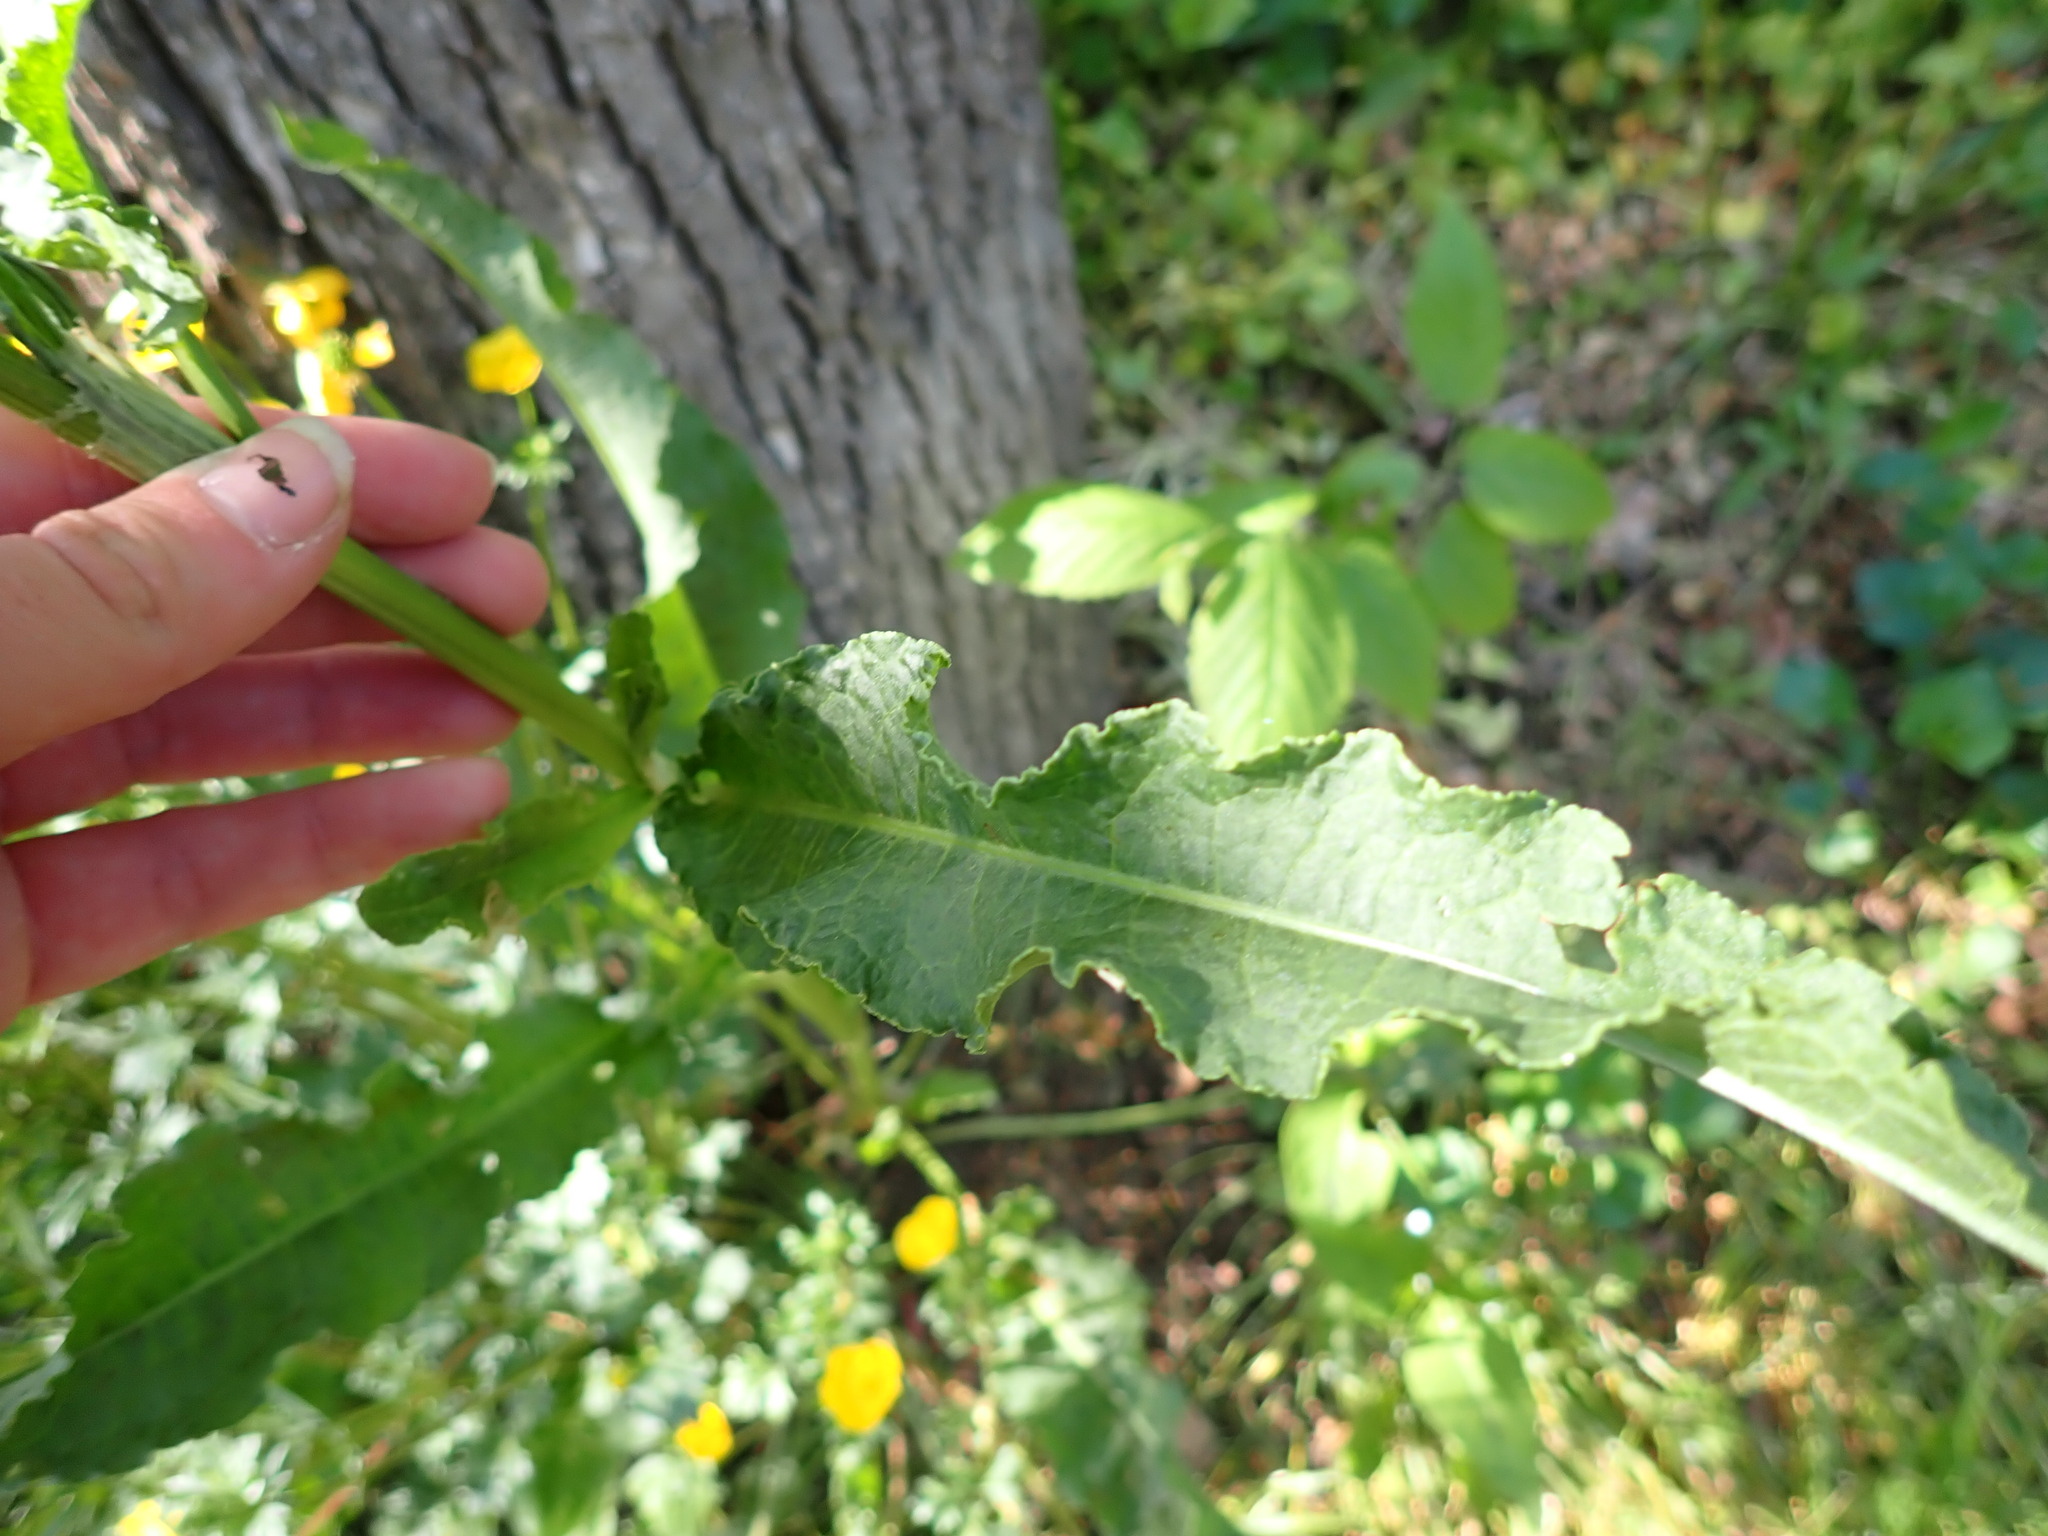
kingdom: Plantae
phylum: Tracheophyta
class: Magnoliopsida
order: Caryophyllales
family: Polygonaceae
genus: Rumex
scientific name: Rumex crispus
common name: Curled dock
